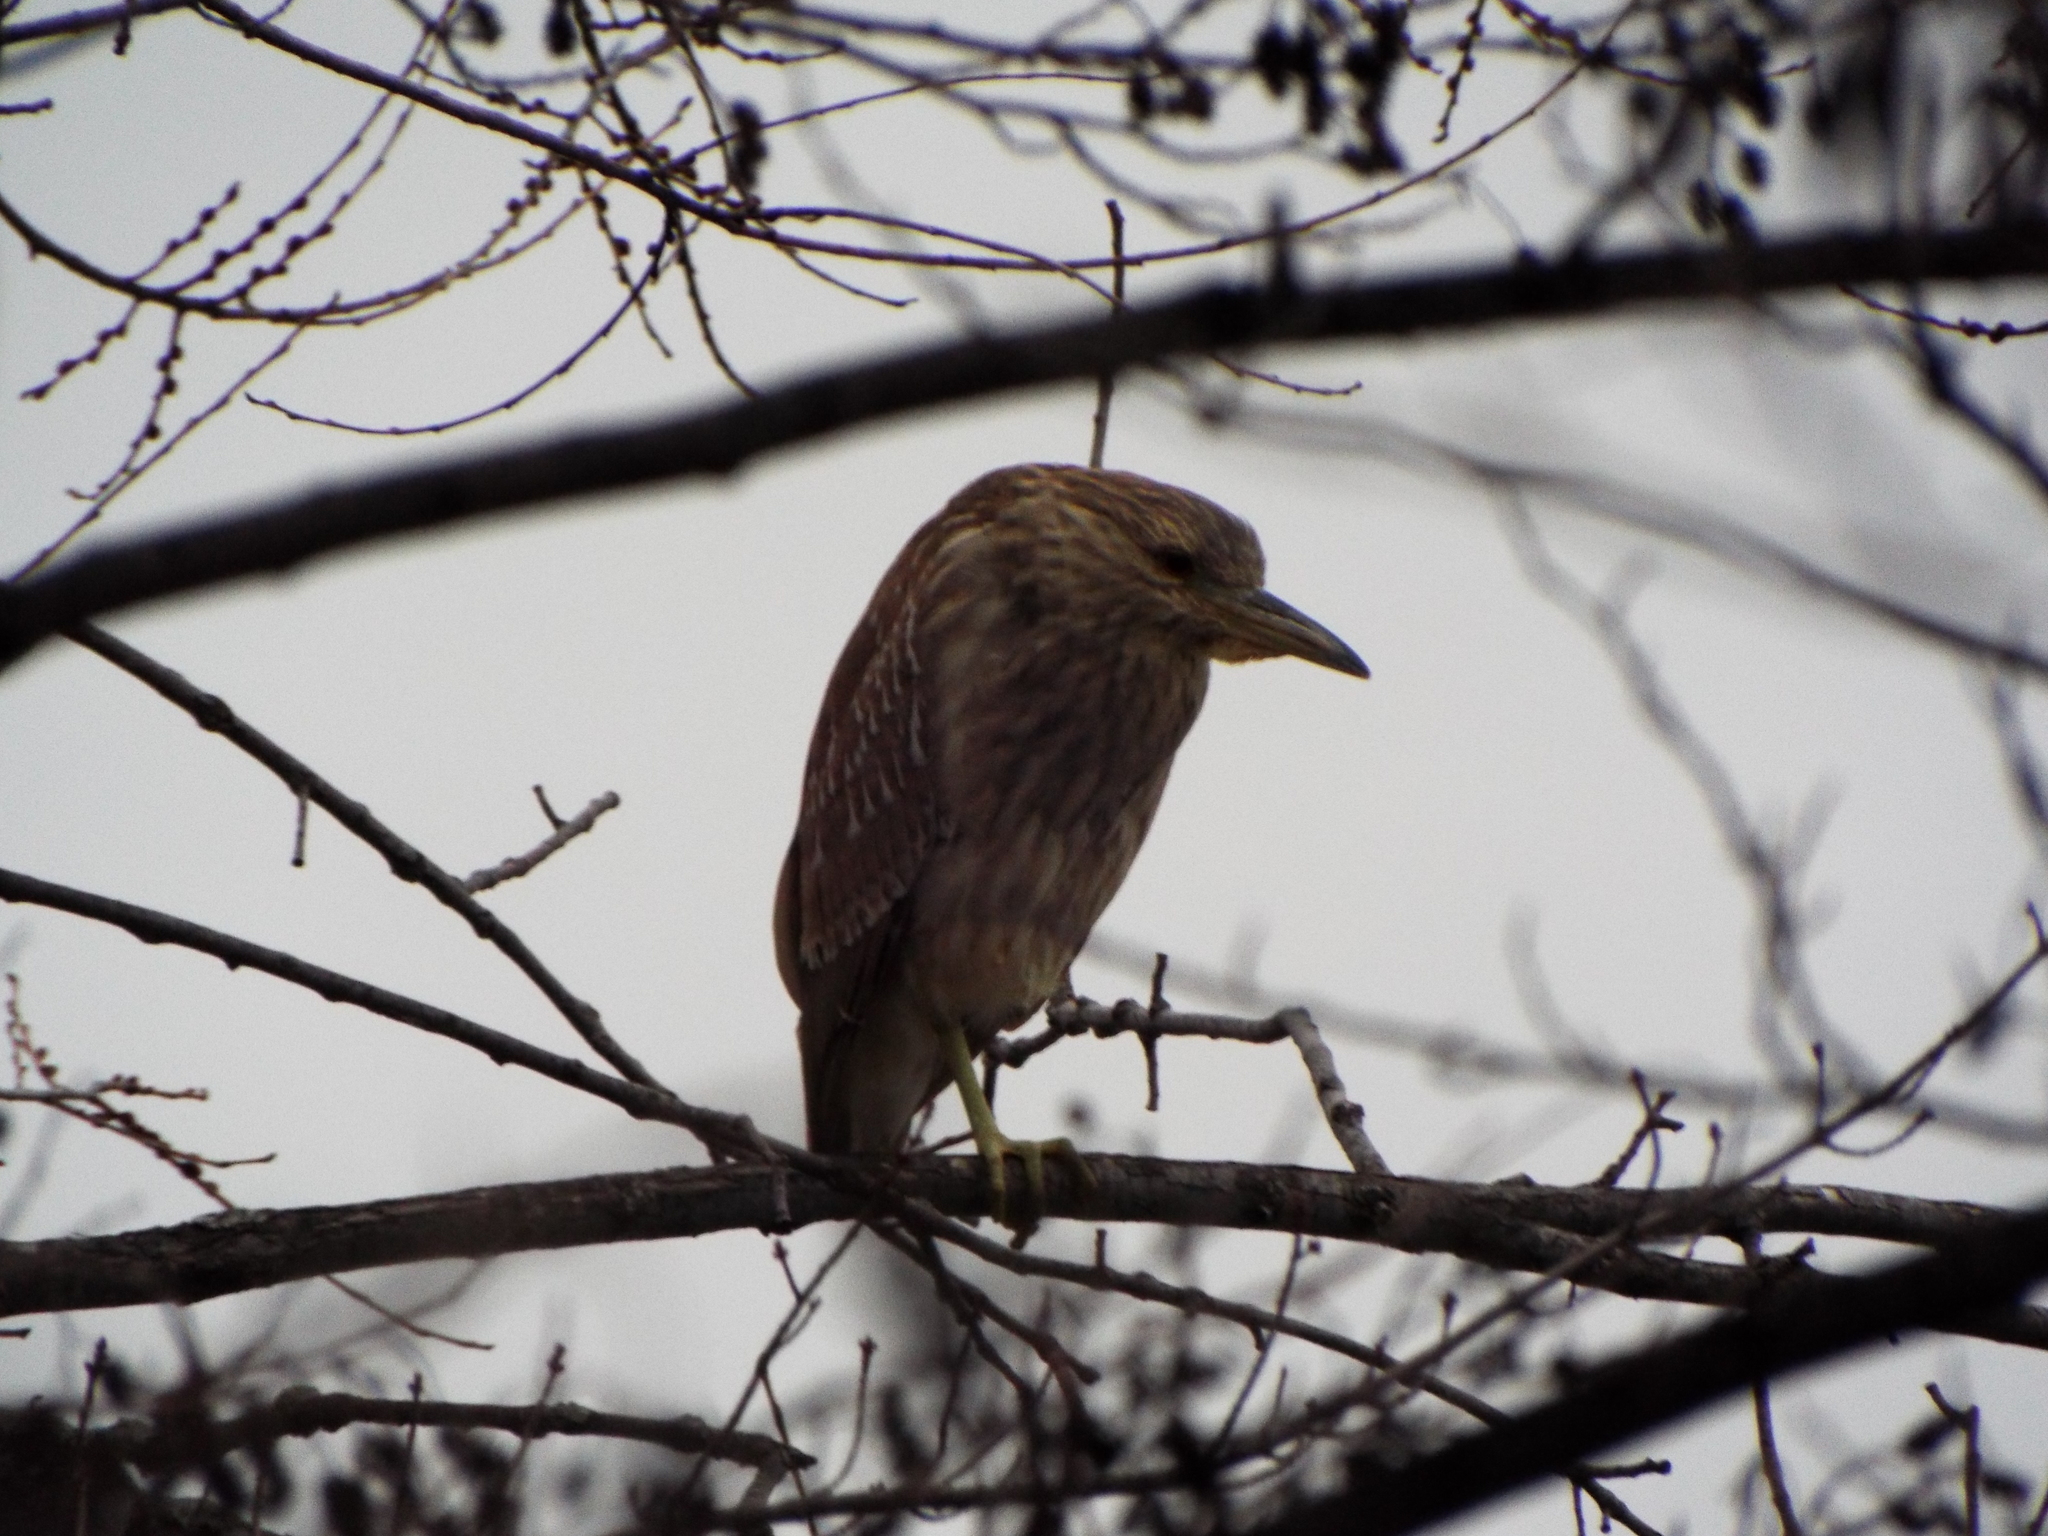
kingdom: Animalia
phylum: Chordata
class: Aves
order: Pelecaniformes
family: Ardeidae
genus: Nycticorax
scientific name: Nycticorax nycticorax
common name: Black-crowned night heron
